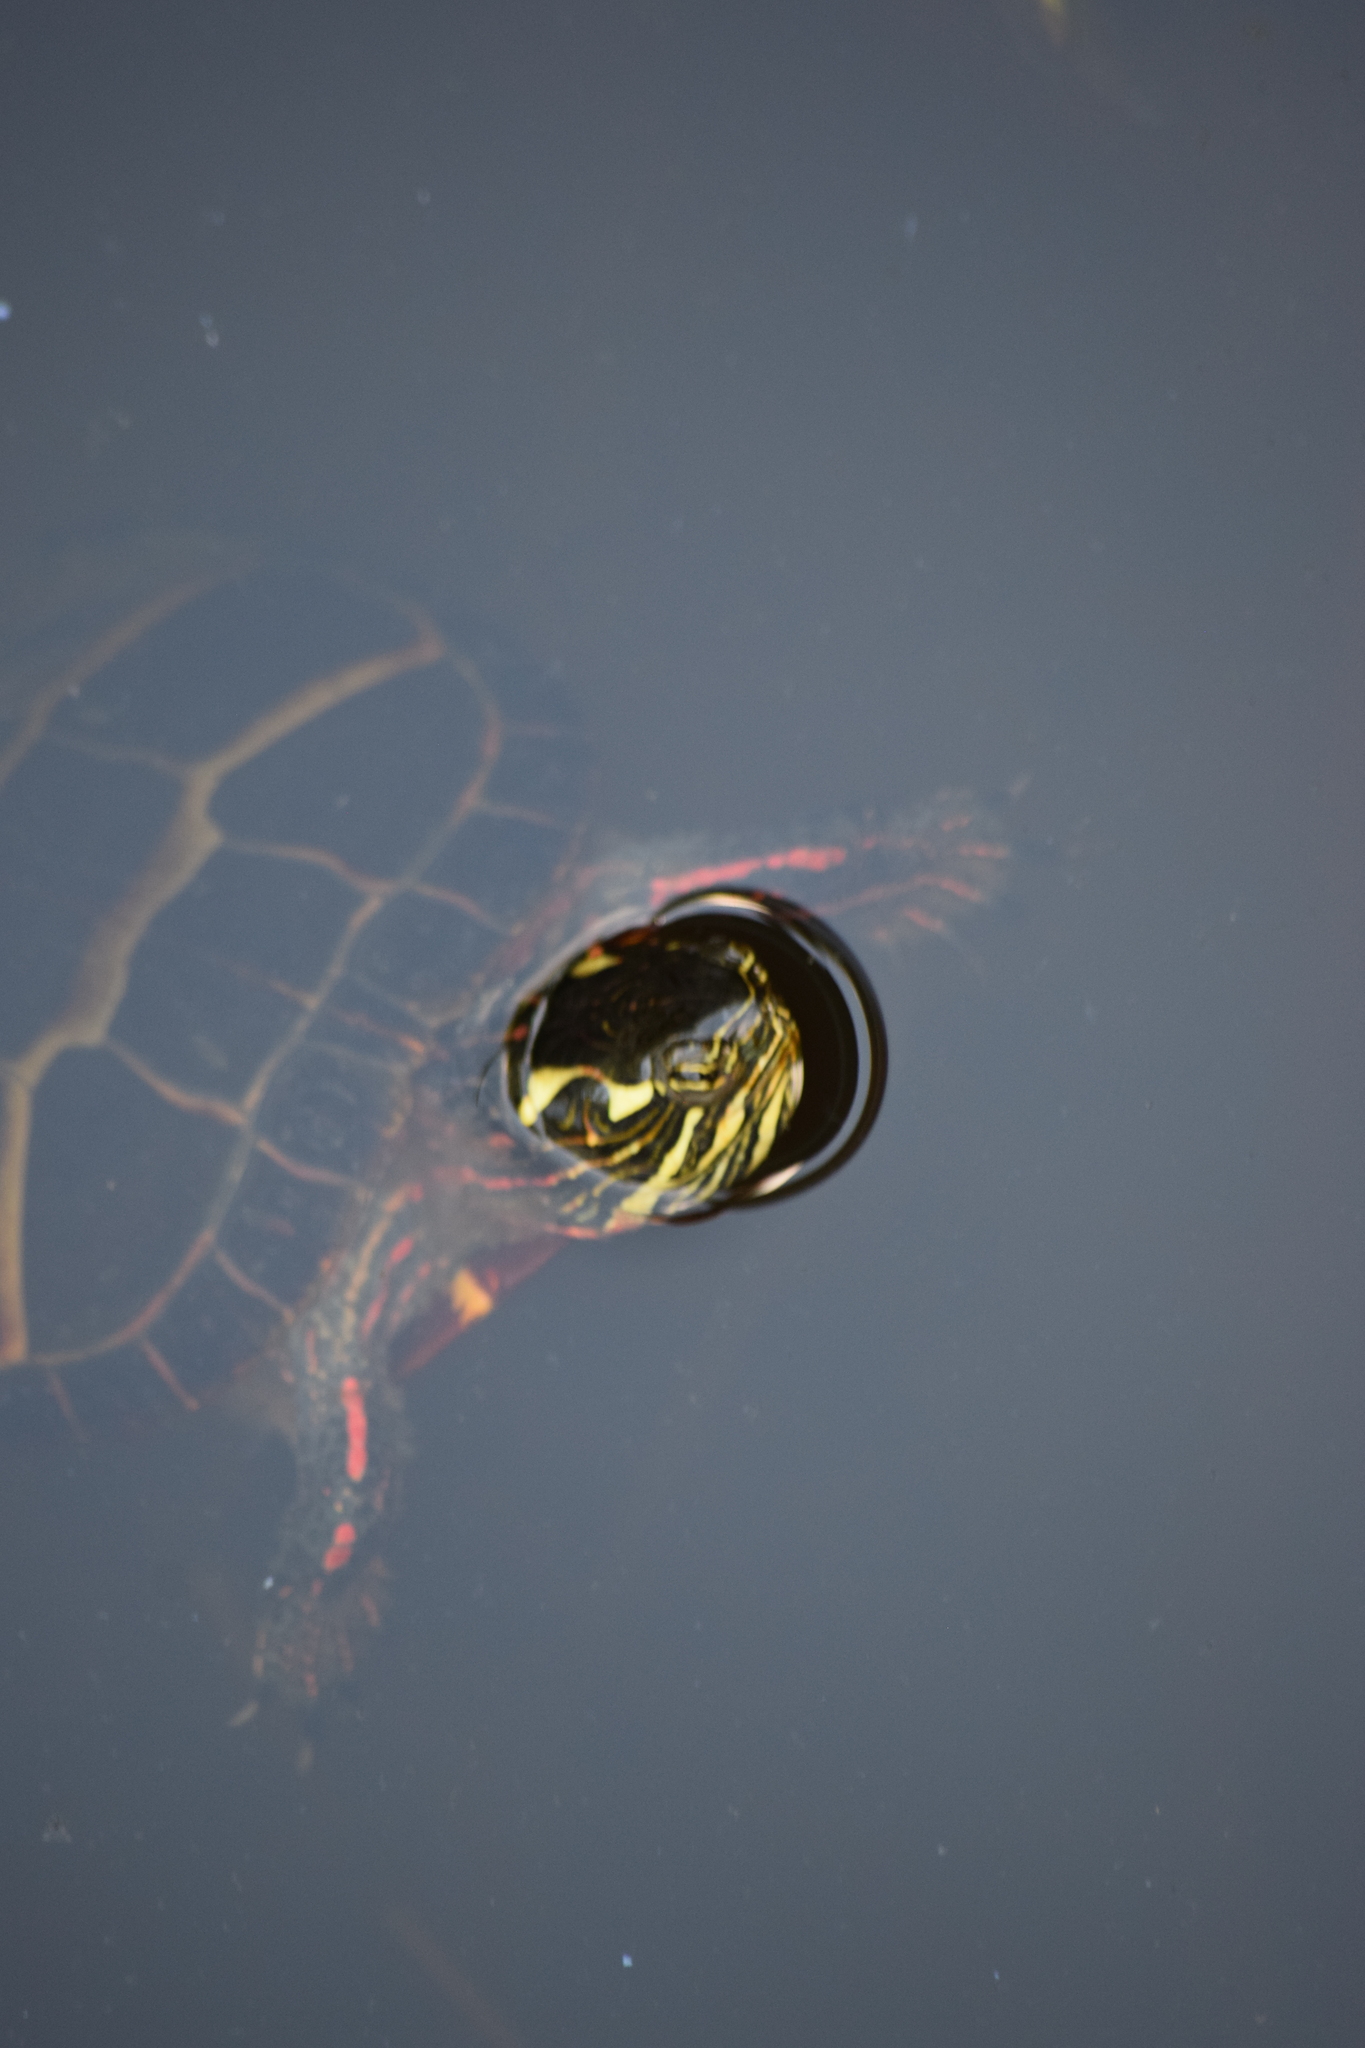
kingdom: Animalia
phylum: Chordata
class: Testudines
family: Emydidae
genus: Chrysemys
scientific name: Chrysemys picta
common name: Painted turtle
